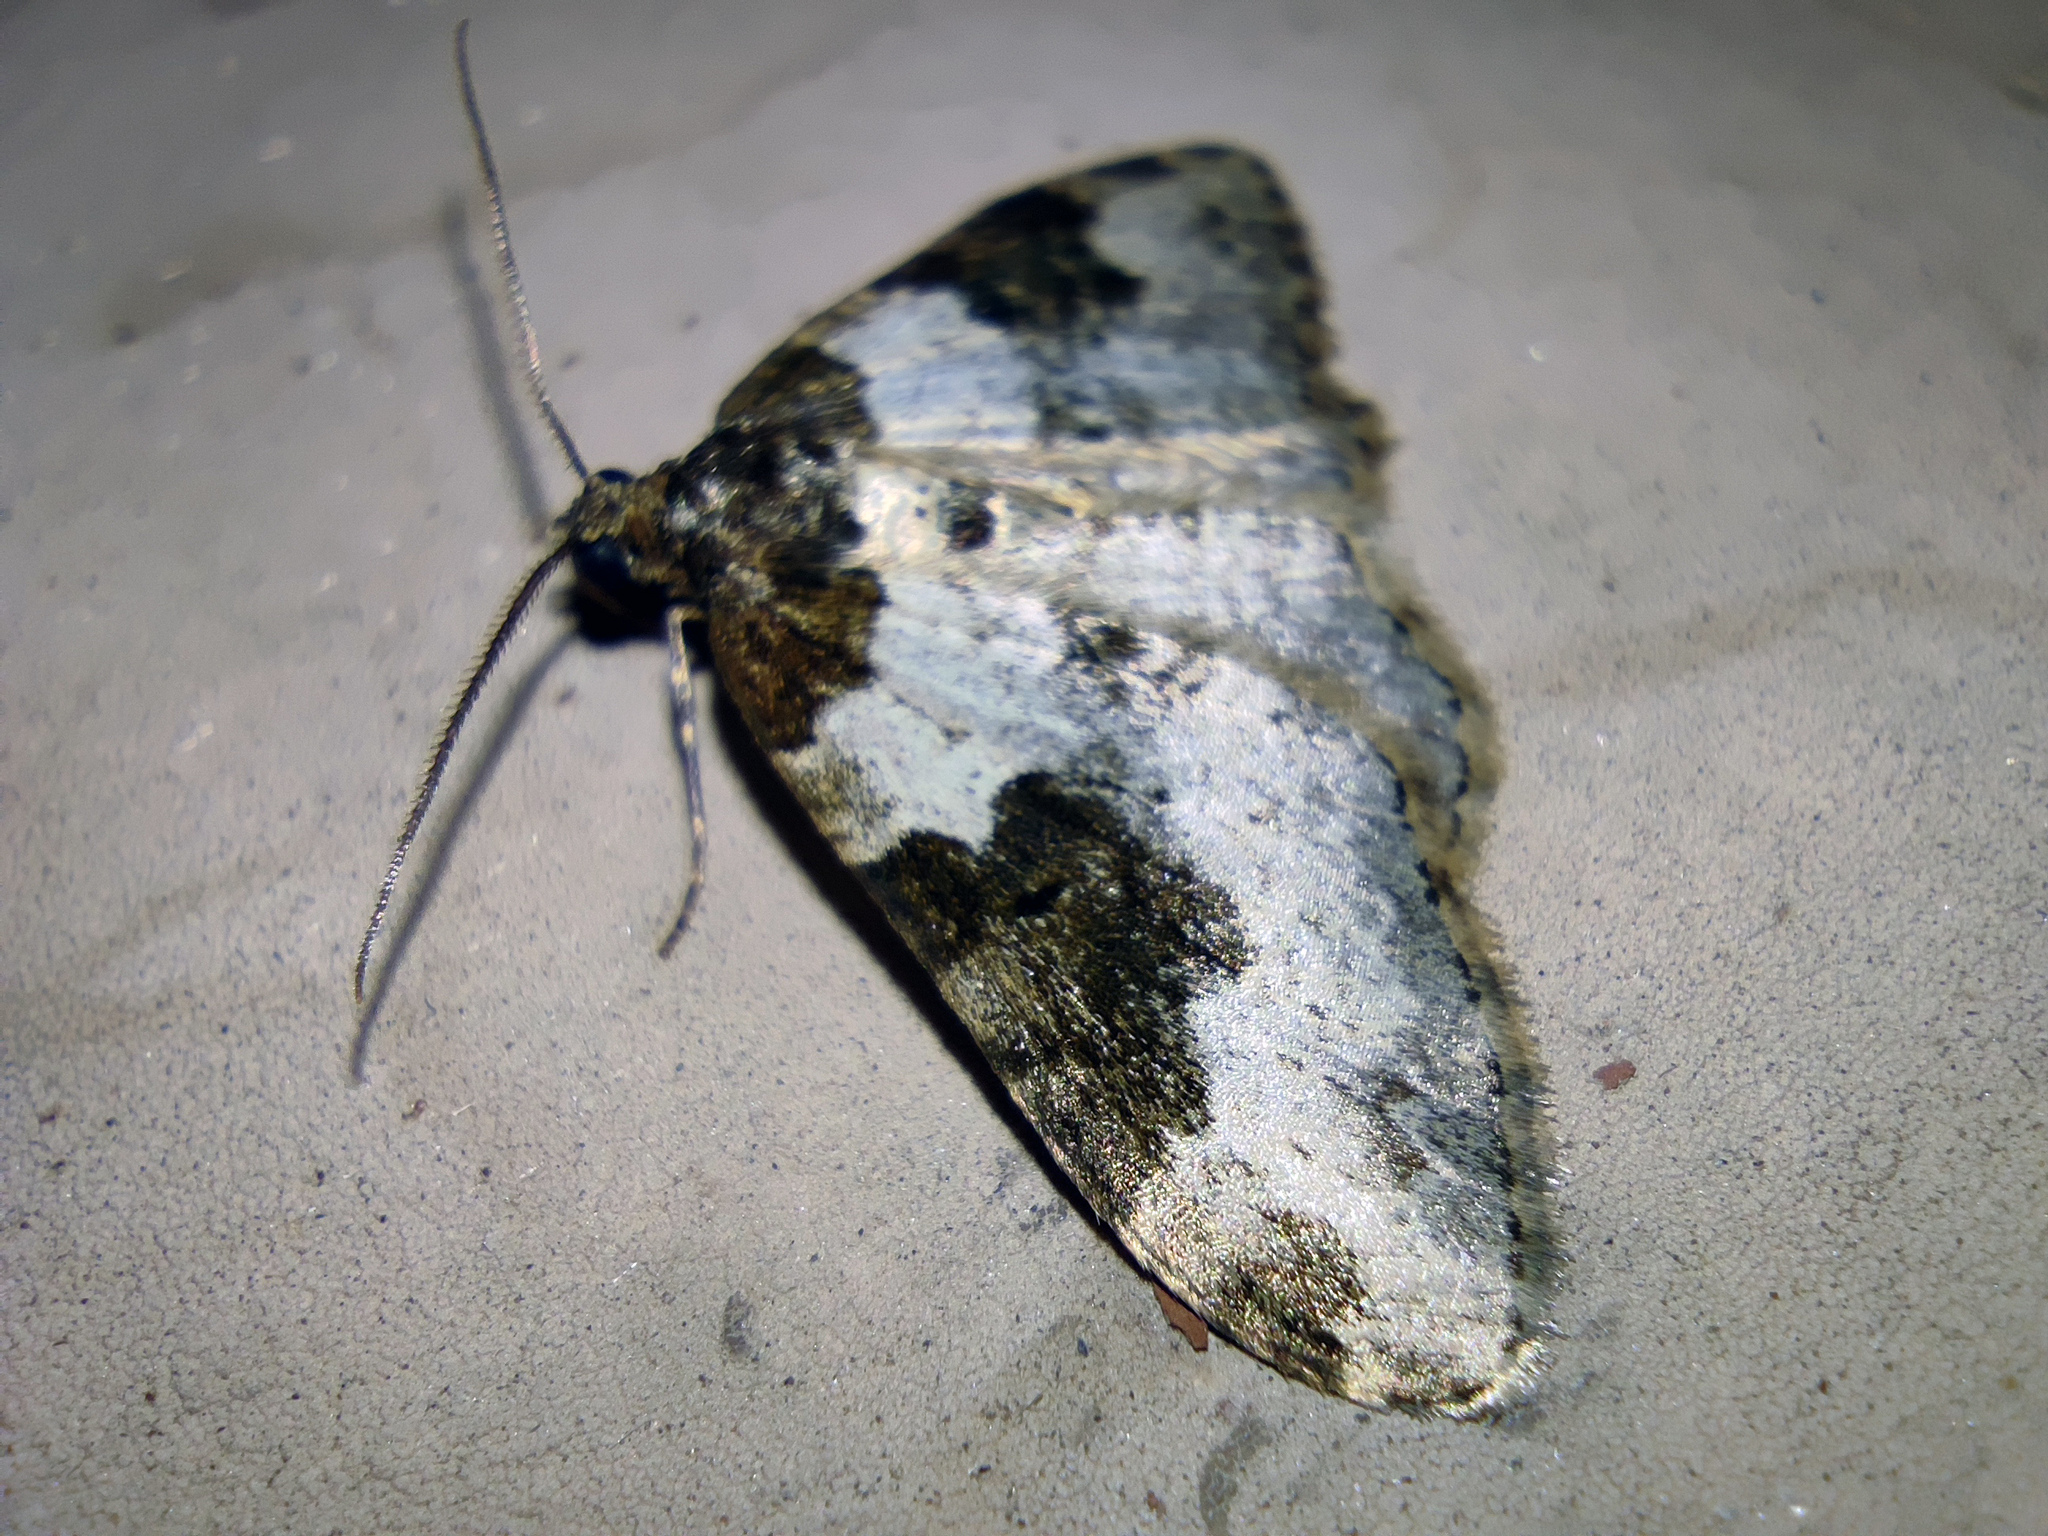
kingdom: Animalia
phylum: Arthropoda
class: Insecta
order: Lepidoptera
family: Geometridae
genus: Xanthorhoe
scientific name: Xanthorhoe fluctuata
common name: Garden carpet
